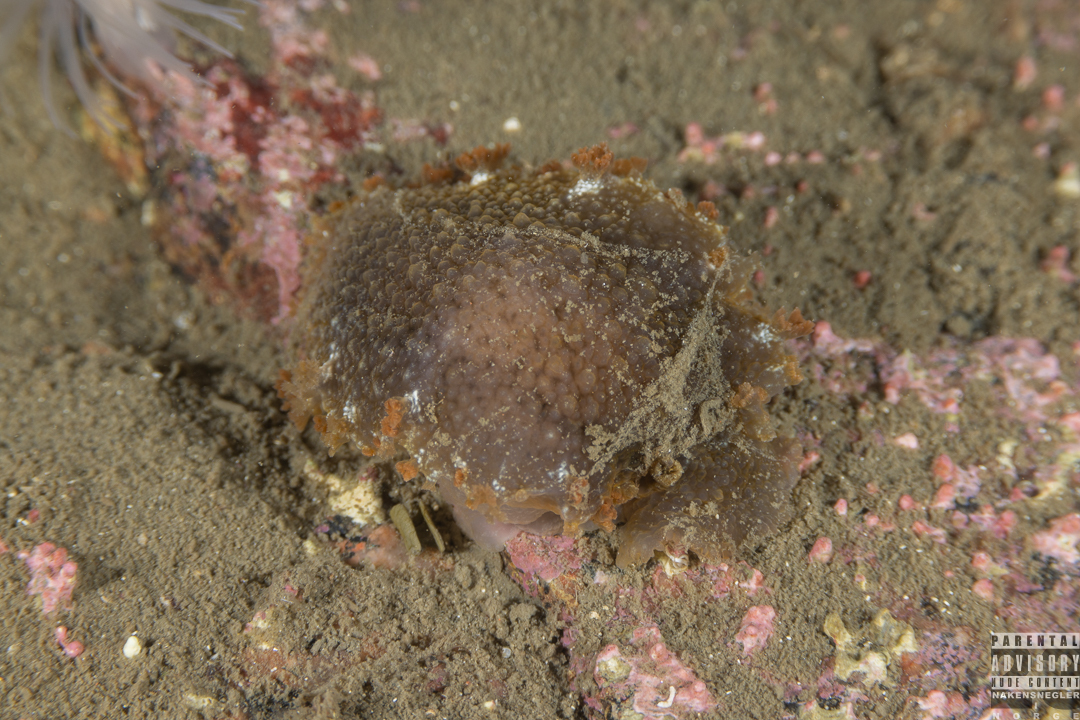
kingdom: Animalia
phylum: Mollusca
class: Gastropoda
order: Nudibranchia
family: Tritoniidae
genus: Tritonia
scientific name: Tritonia hombergii
